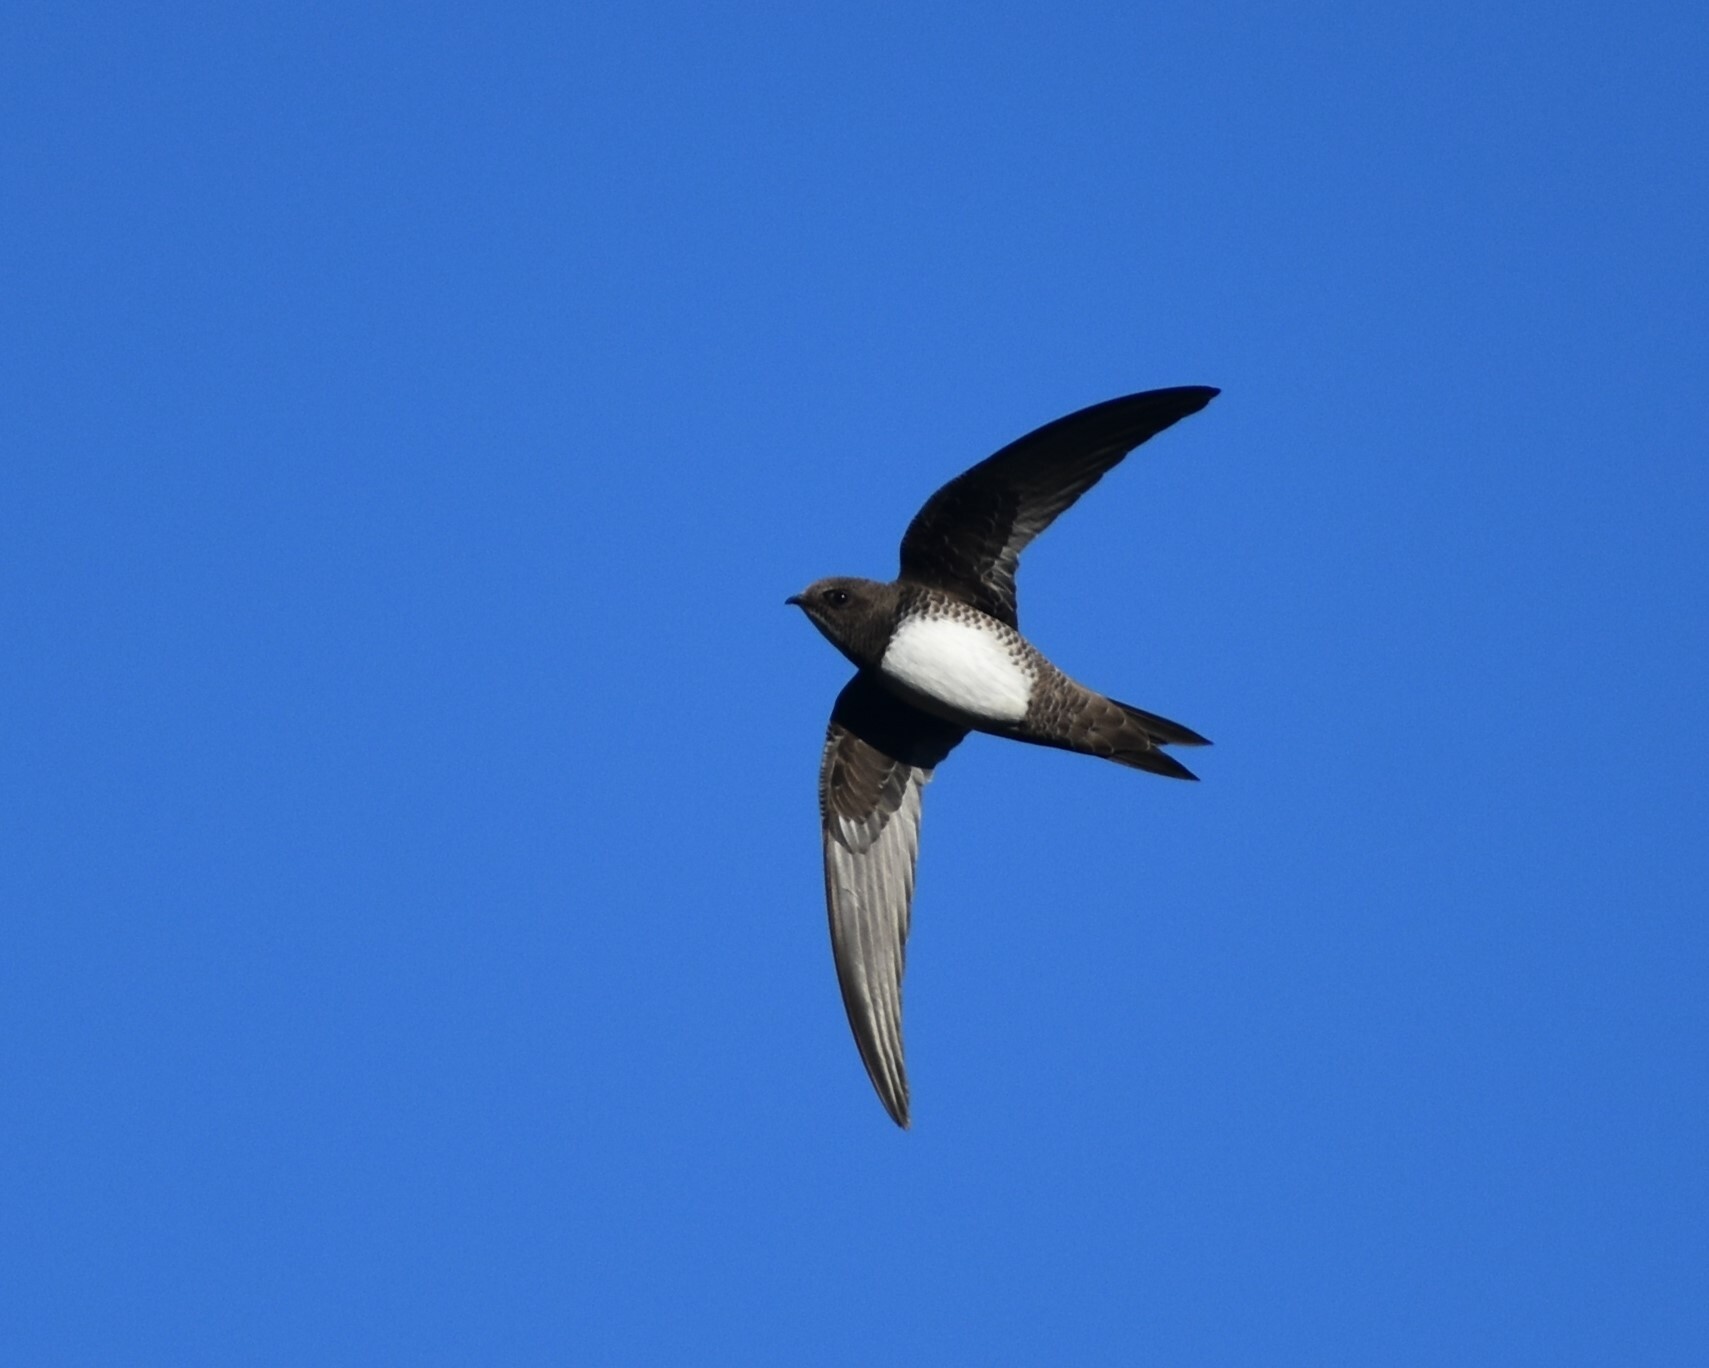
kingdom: Animalia
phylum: Chordata
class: Aves
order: Apodiformes
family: Apodidae
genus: Tachymarptis
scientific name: Tachymarptis melba
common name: Alpine swift
